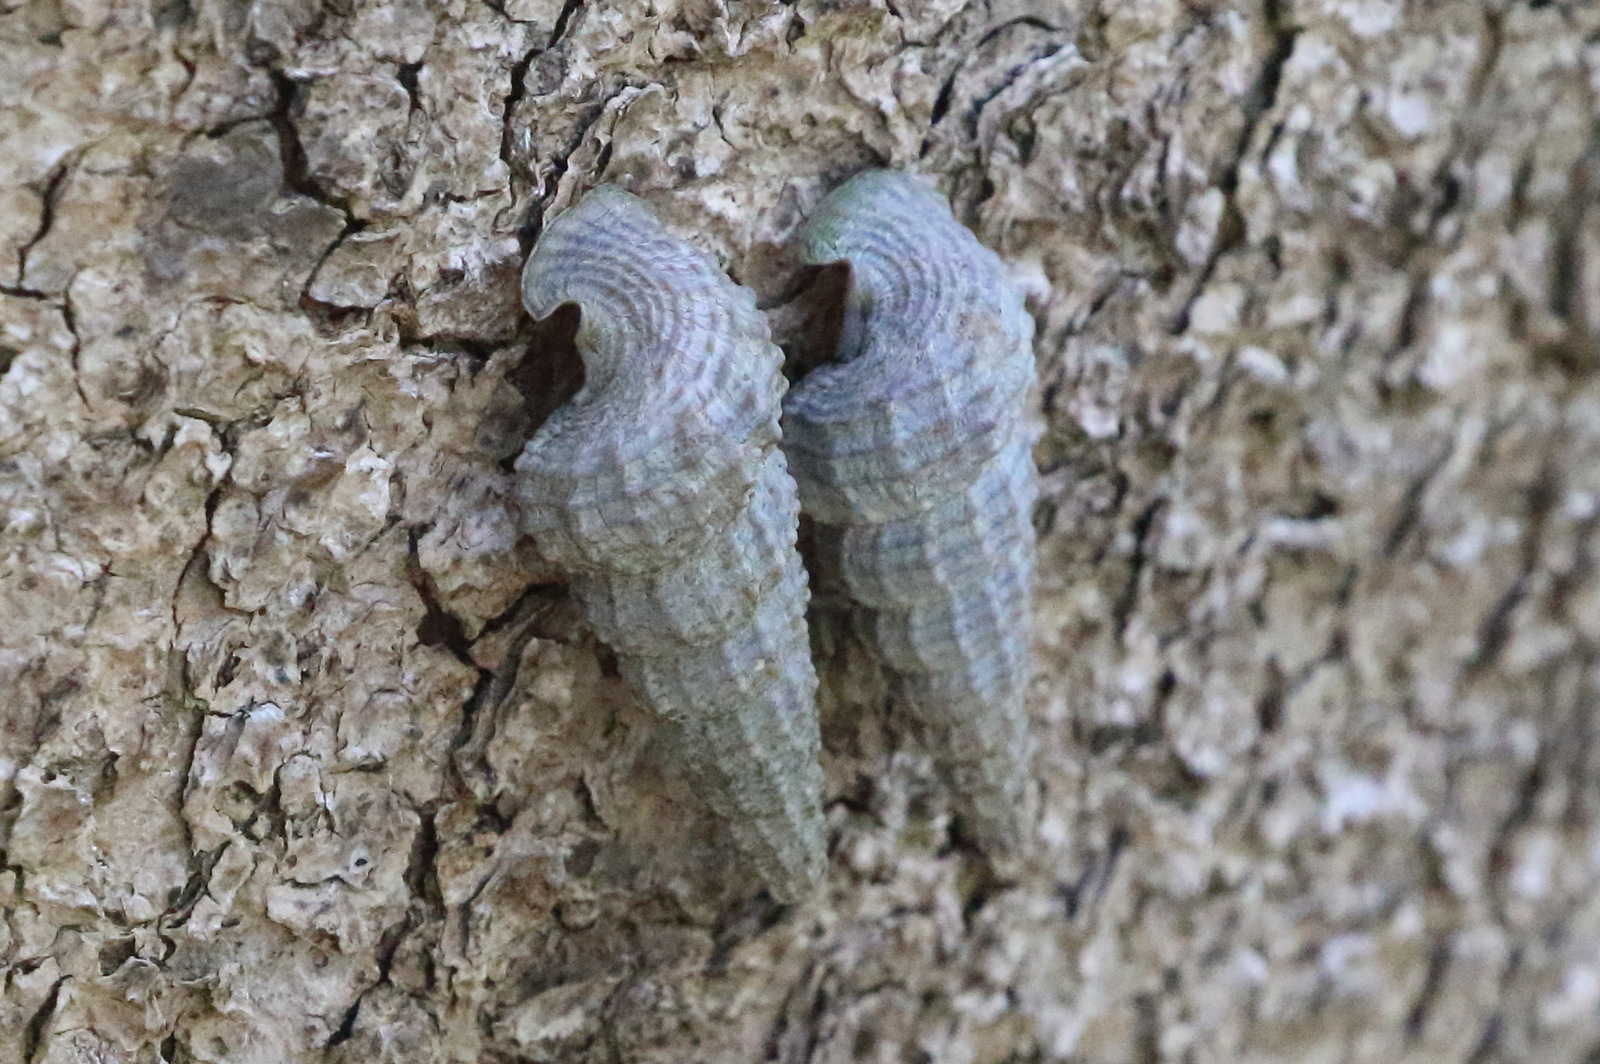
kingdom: Animalia
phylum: Mollusca
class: Gastropoda
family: Potamididae
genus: Cerithidea
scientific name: Cerithidea anticipata
